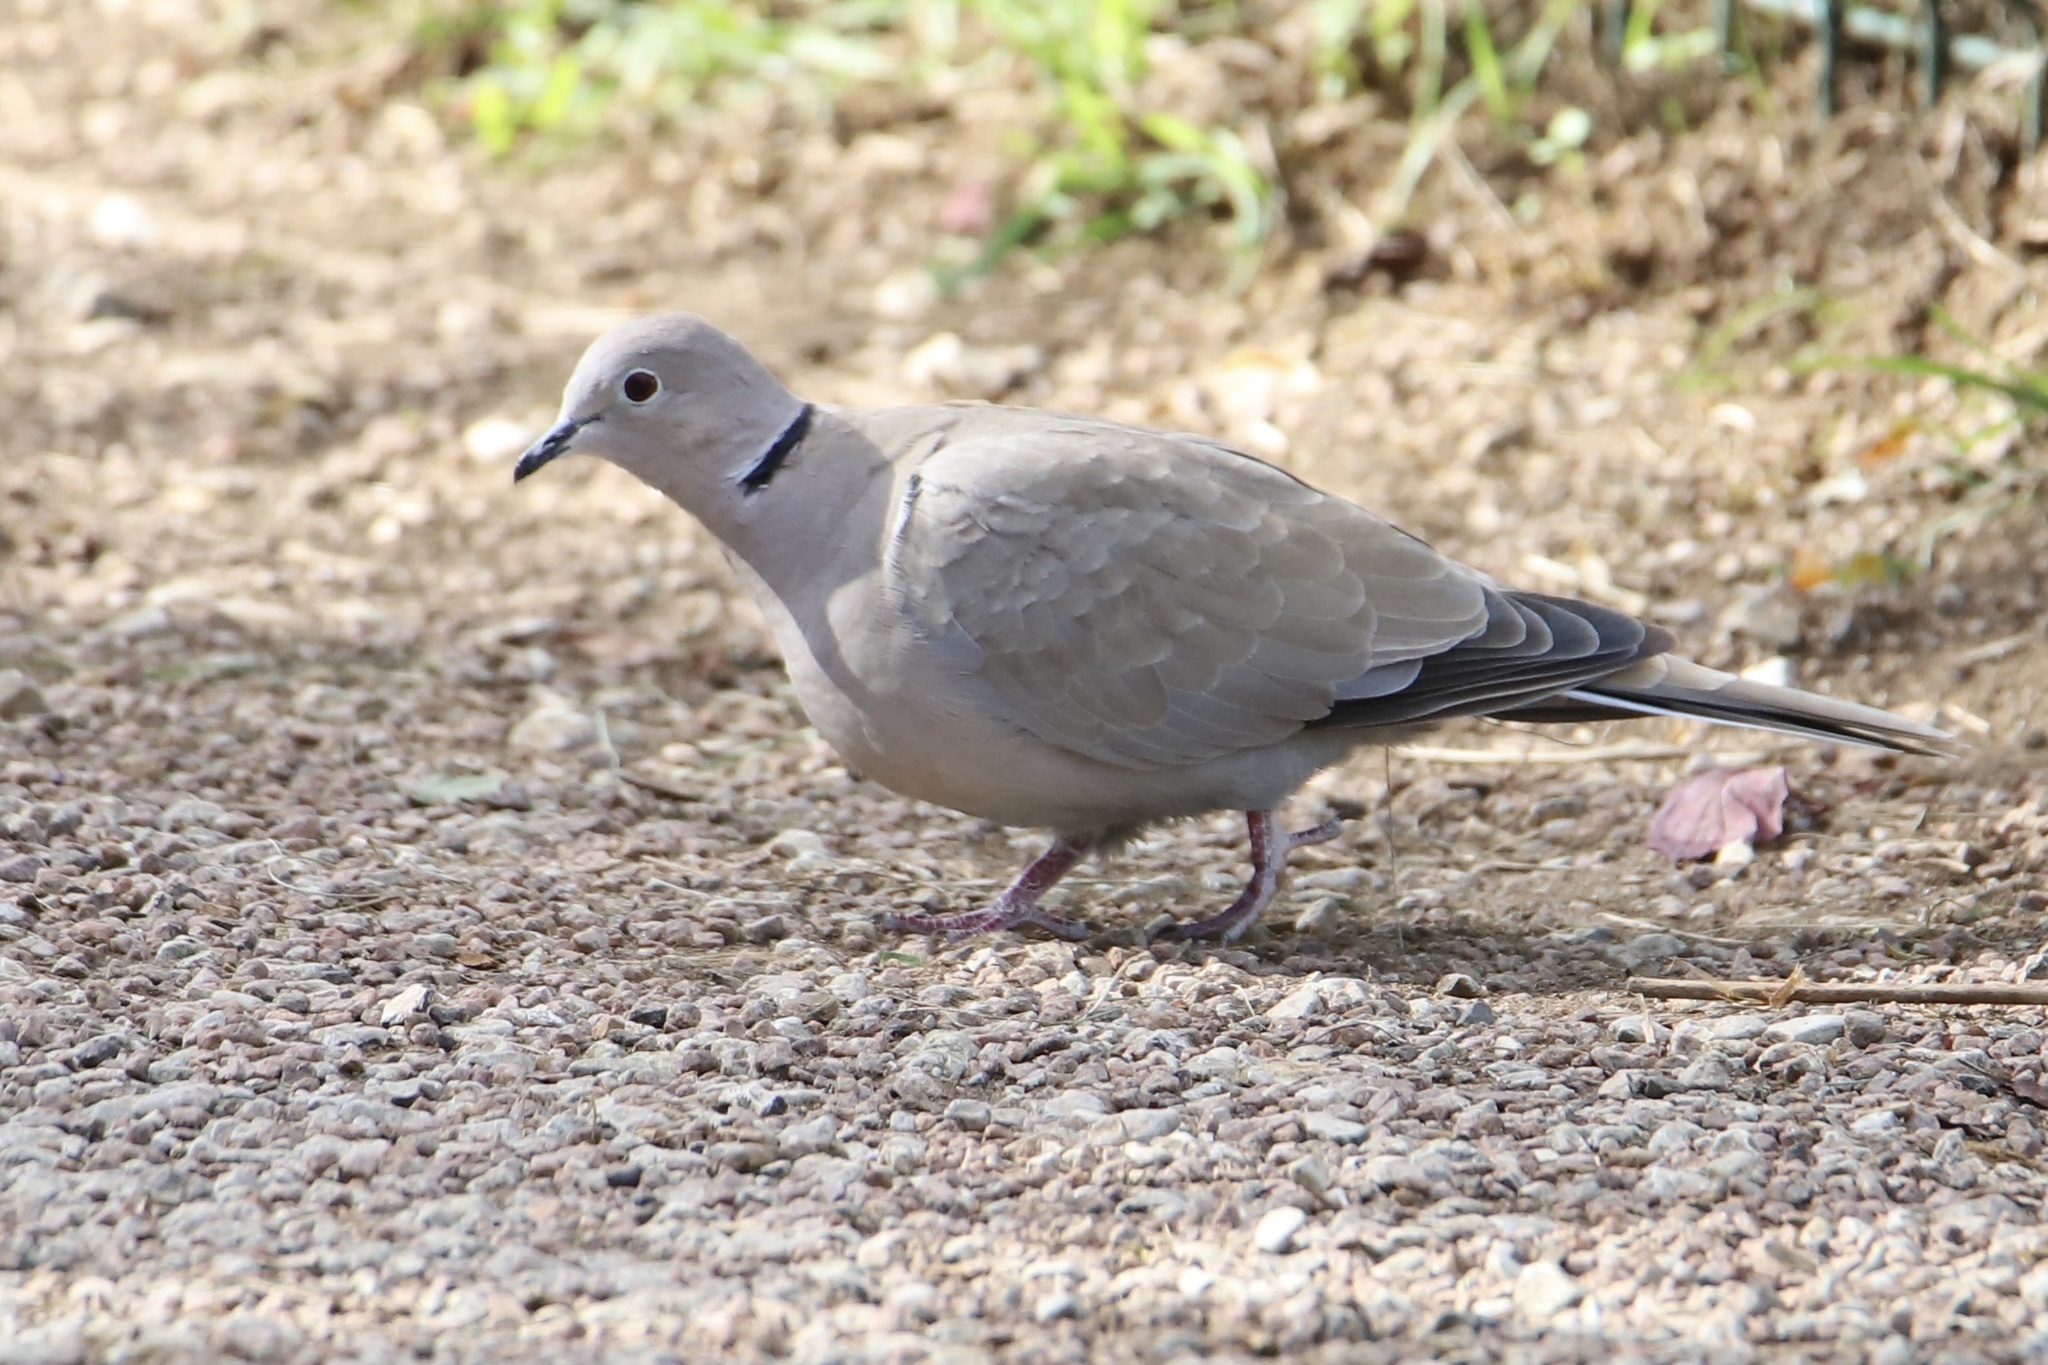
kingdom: Animalia
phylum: Chordata
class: Aves
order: Columbiformes
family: Columbidae
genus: Streptopelia
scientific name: Streptopelia decaocto
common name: Eurasian collared dove
